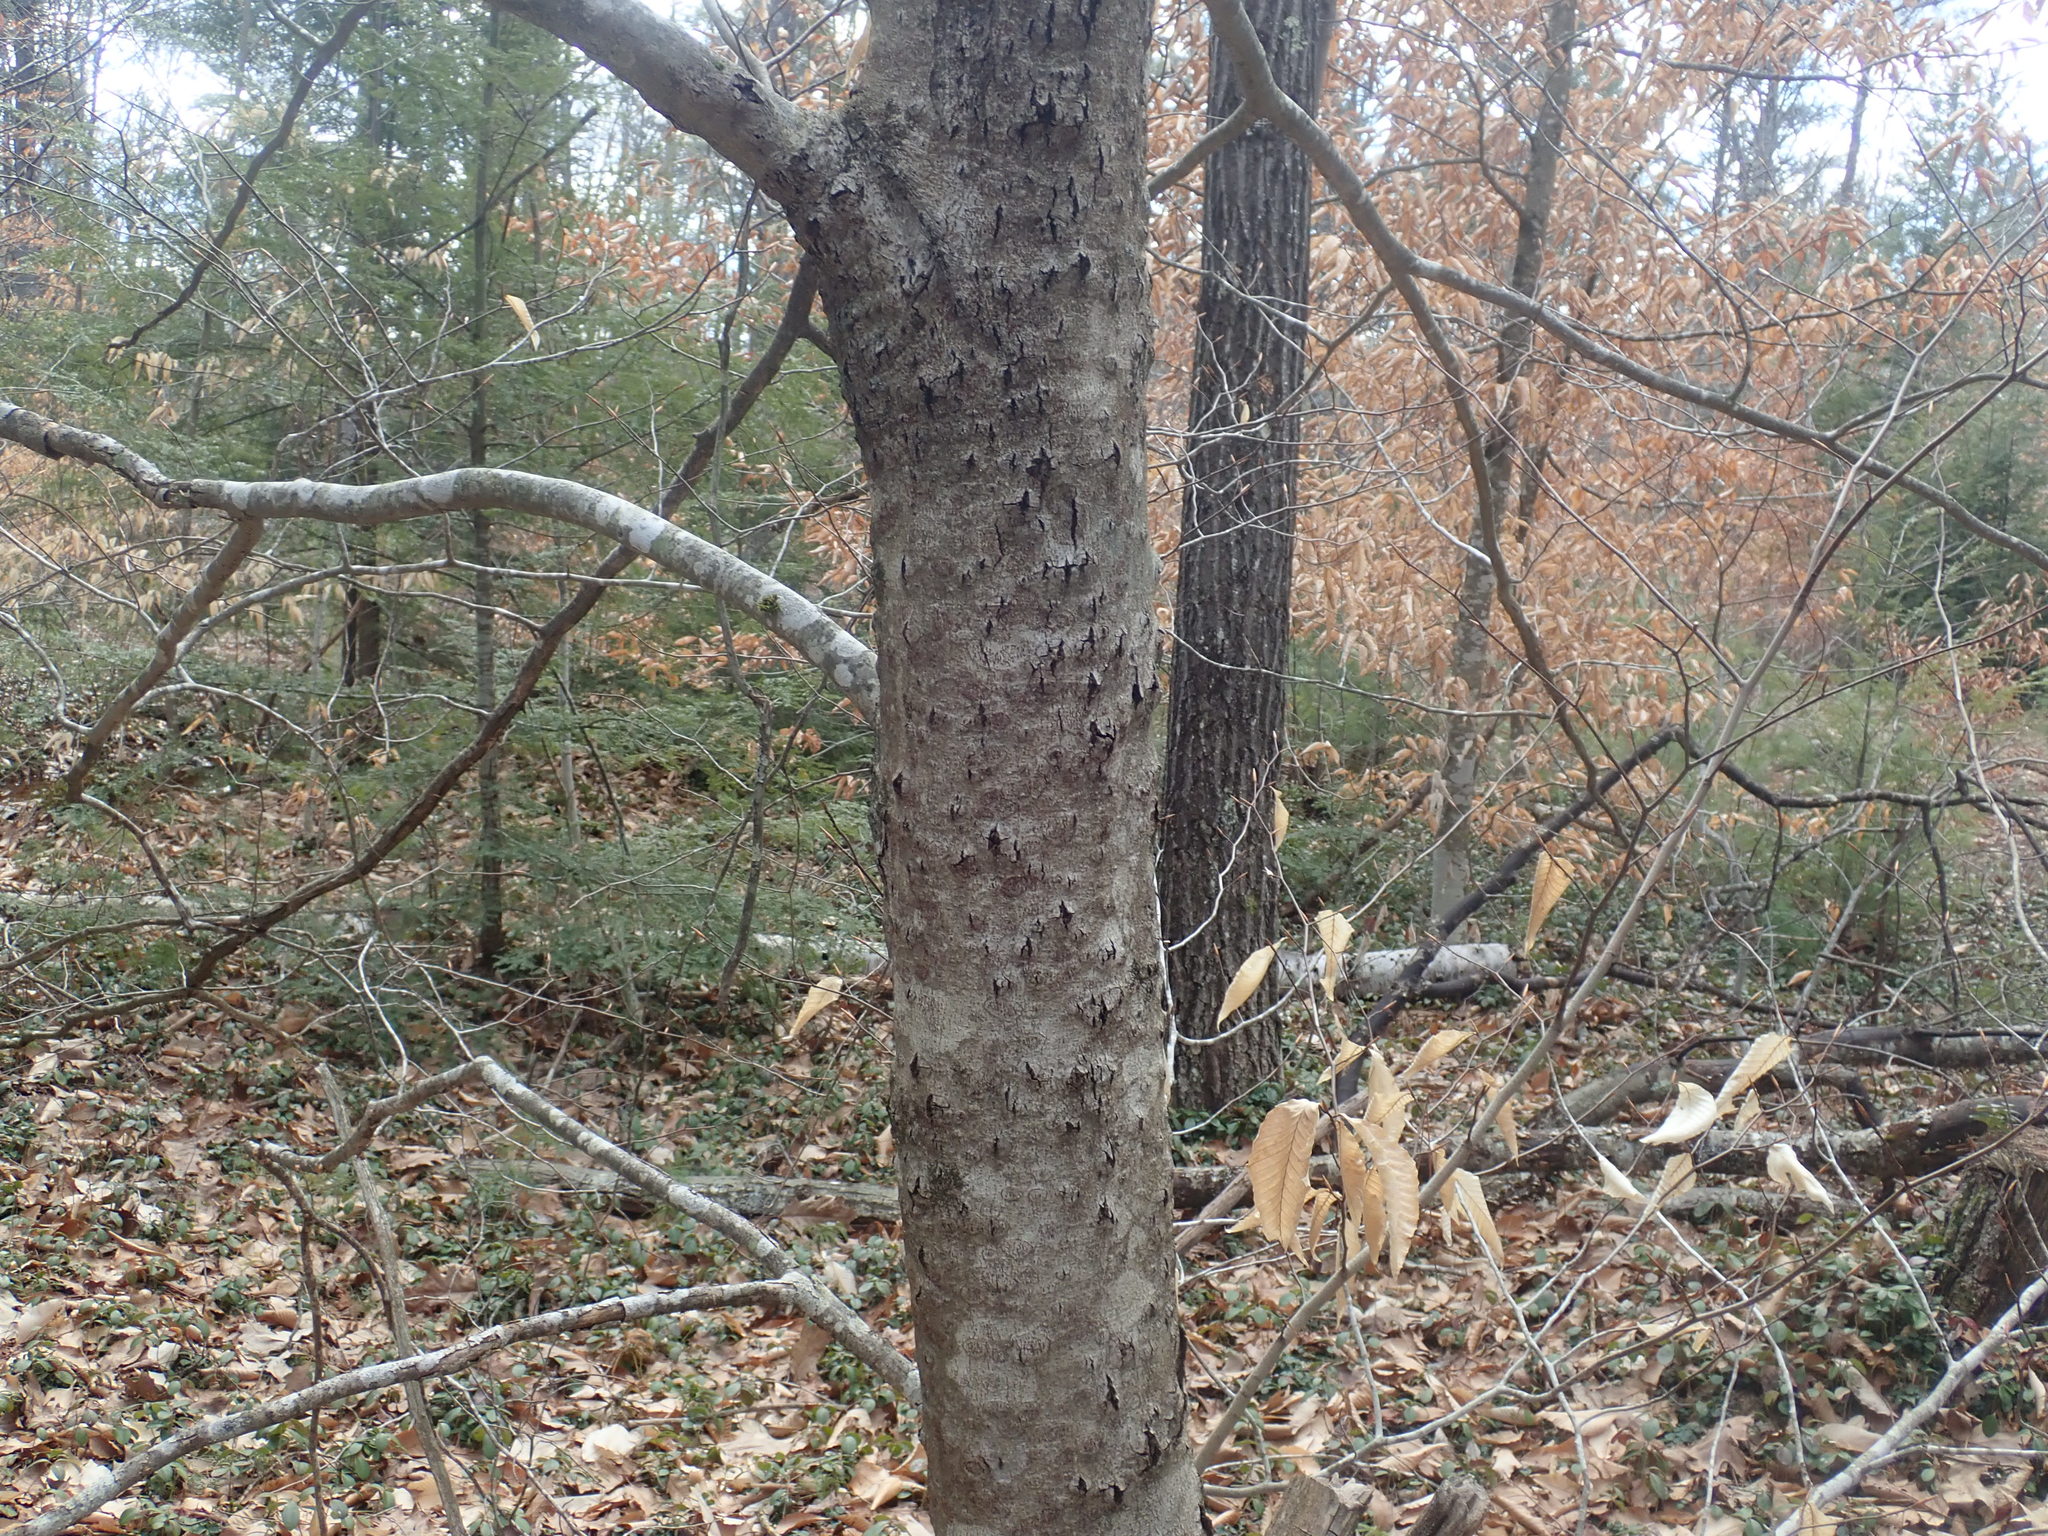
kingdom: Fungi
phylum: Ascomycota
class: Sordariomycetes
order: Hypocreales
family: Nectriaceae
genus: Neonectria
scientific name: Neonectria faginata
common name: Beech bark canker
